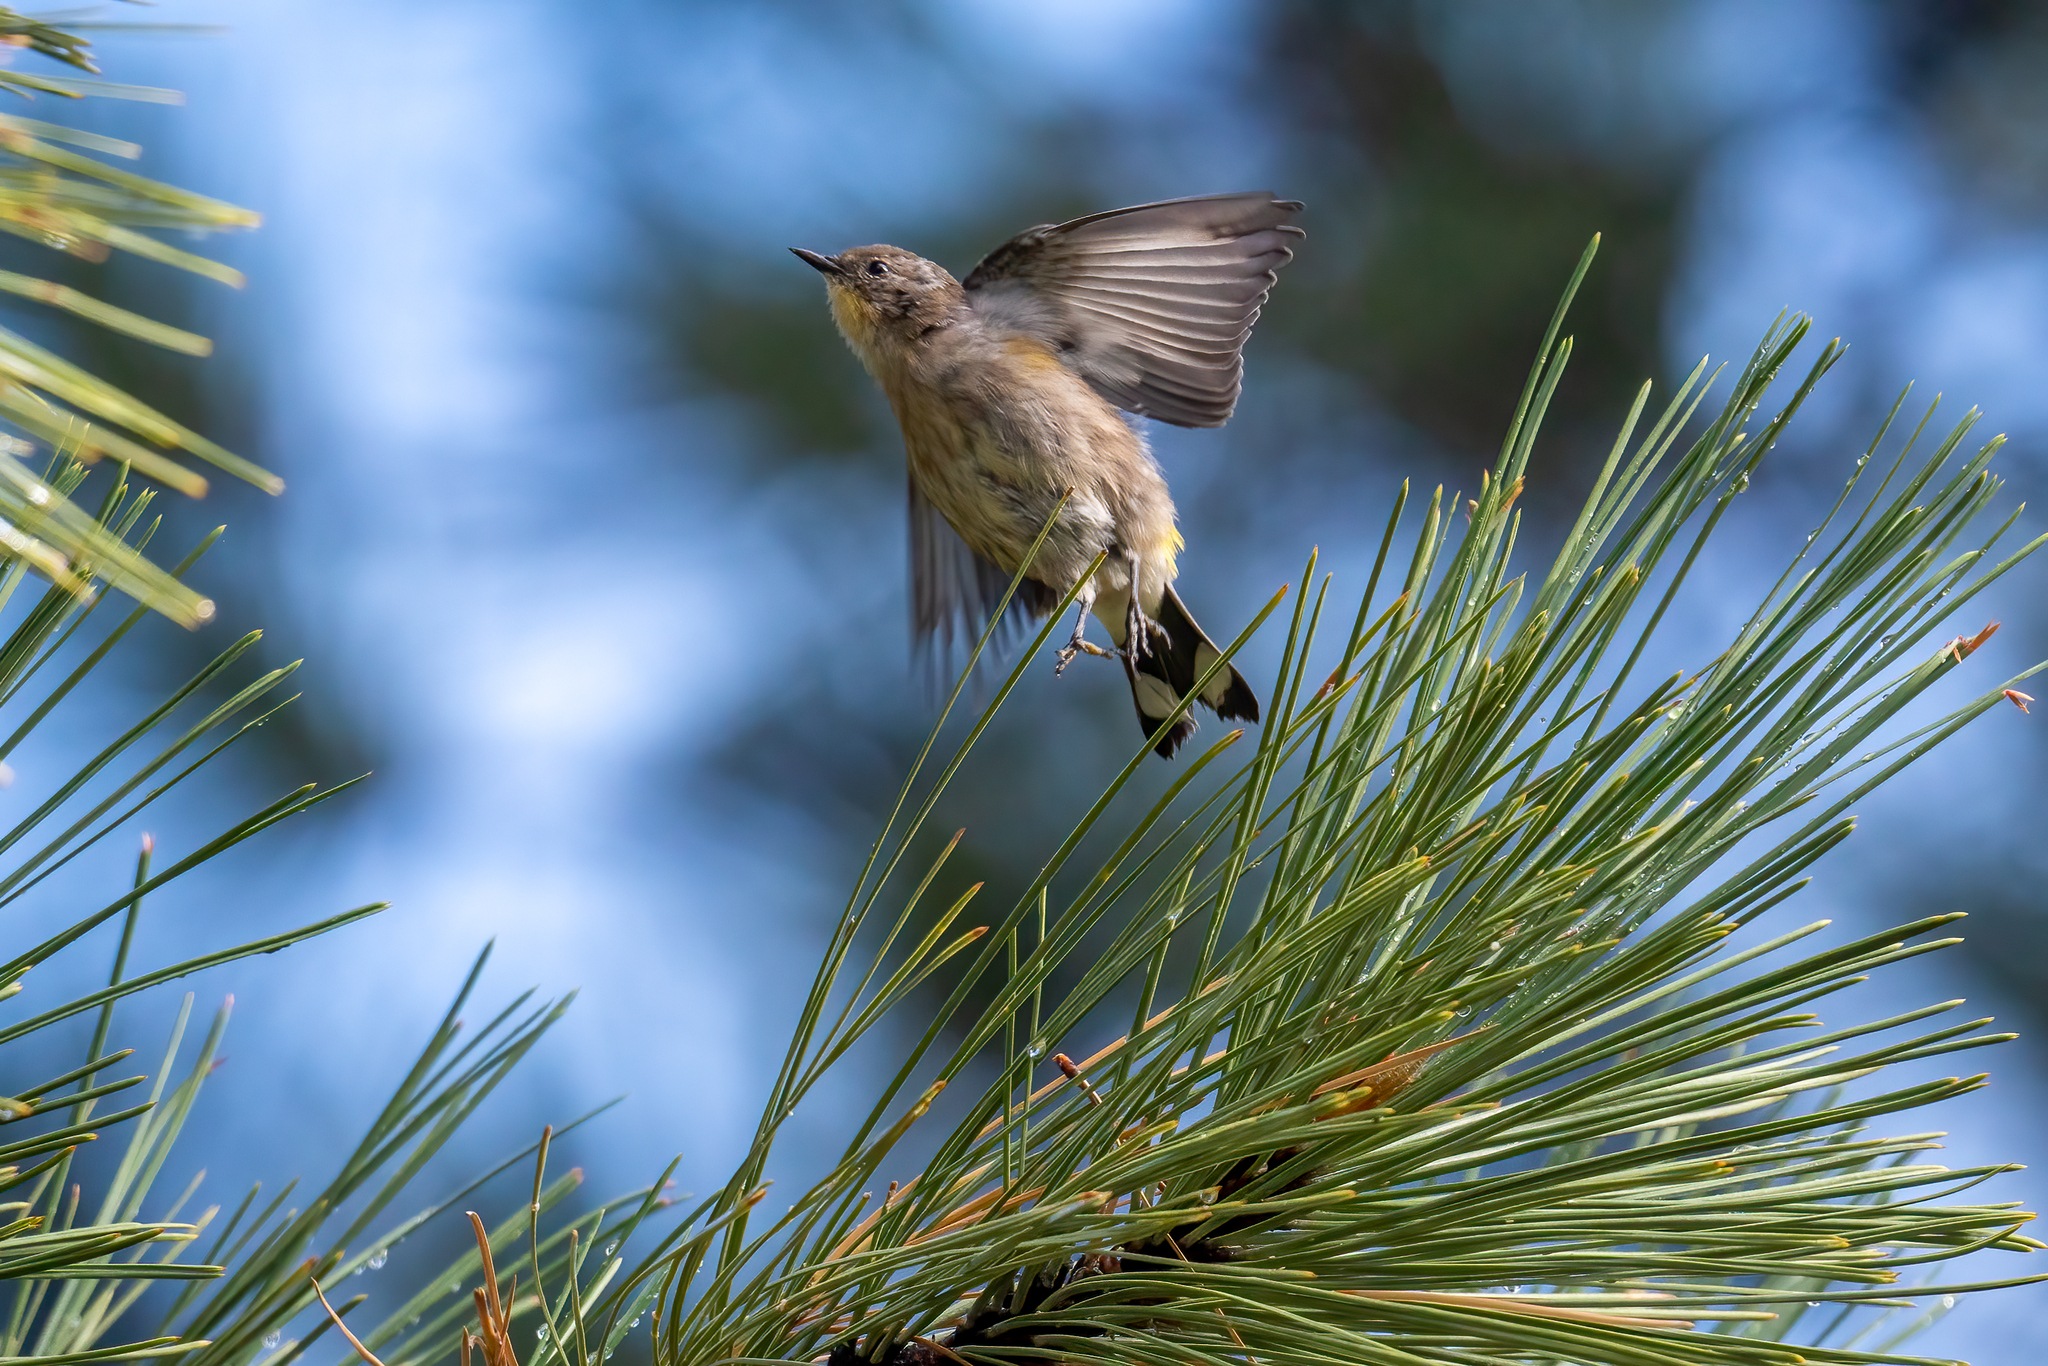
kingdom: Animalia
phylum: Chordata
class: Aves
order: Passeriformes
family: Parulidae
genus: Setophaga
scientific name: Setophaga coronata
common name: Myrtle warbler
